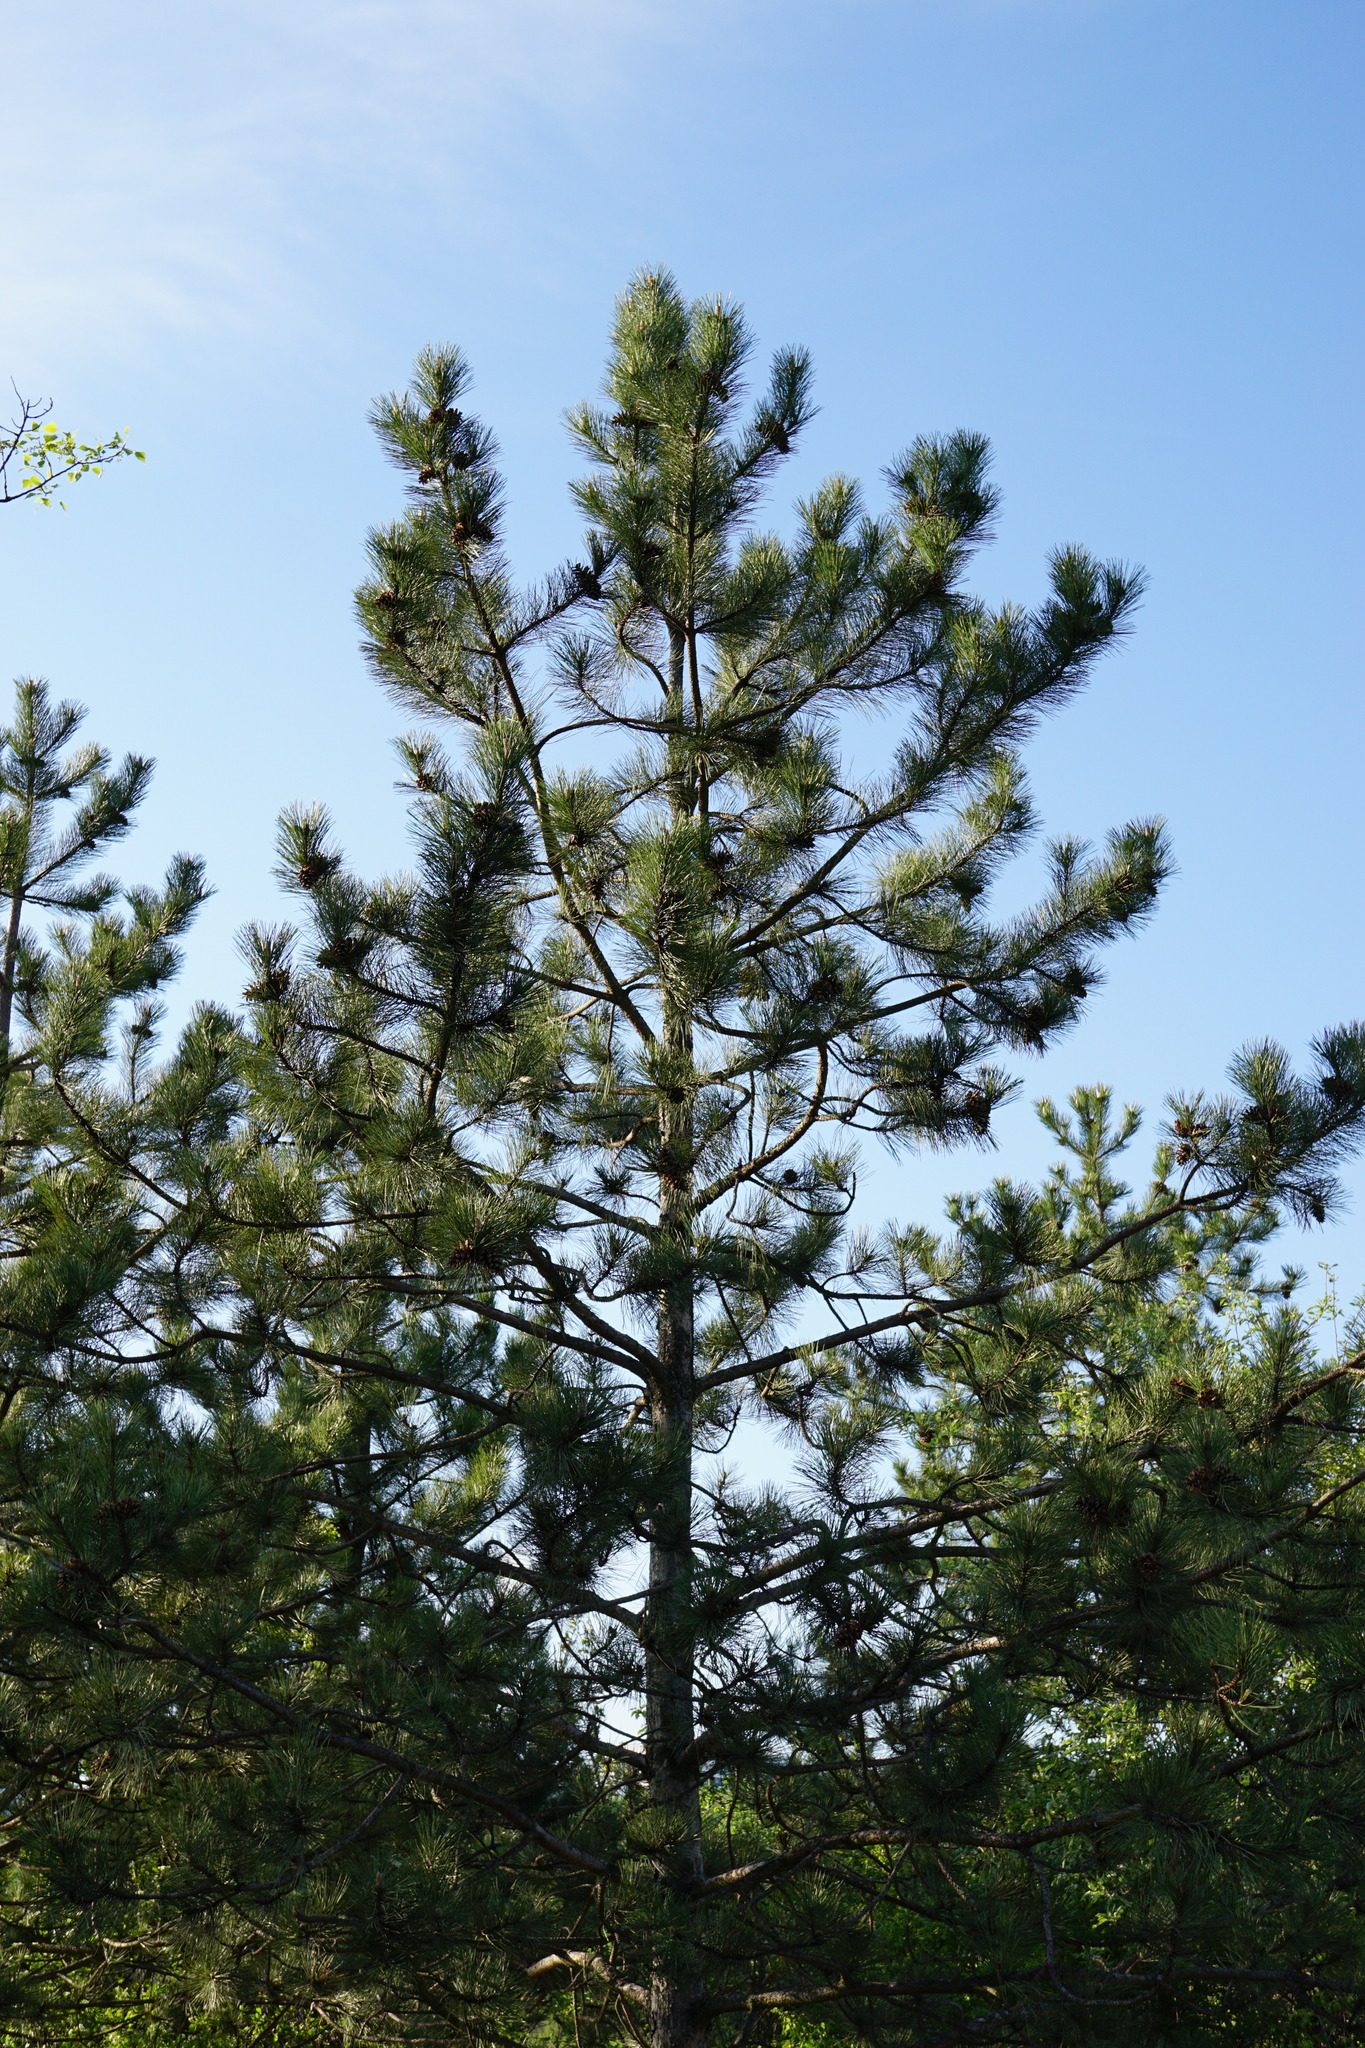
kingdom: Plantae
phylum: Tracheophyta
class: Pinopsida
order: Pinales
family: Pinaceae
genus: Pinus
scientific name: Pinus nigra
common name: Austrian pine
